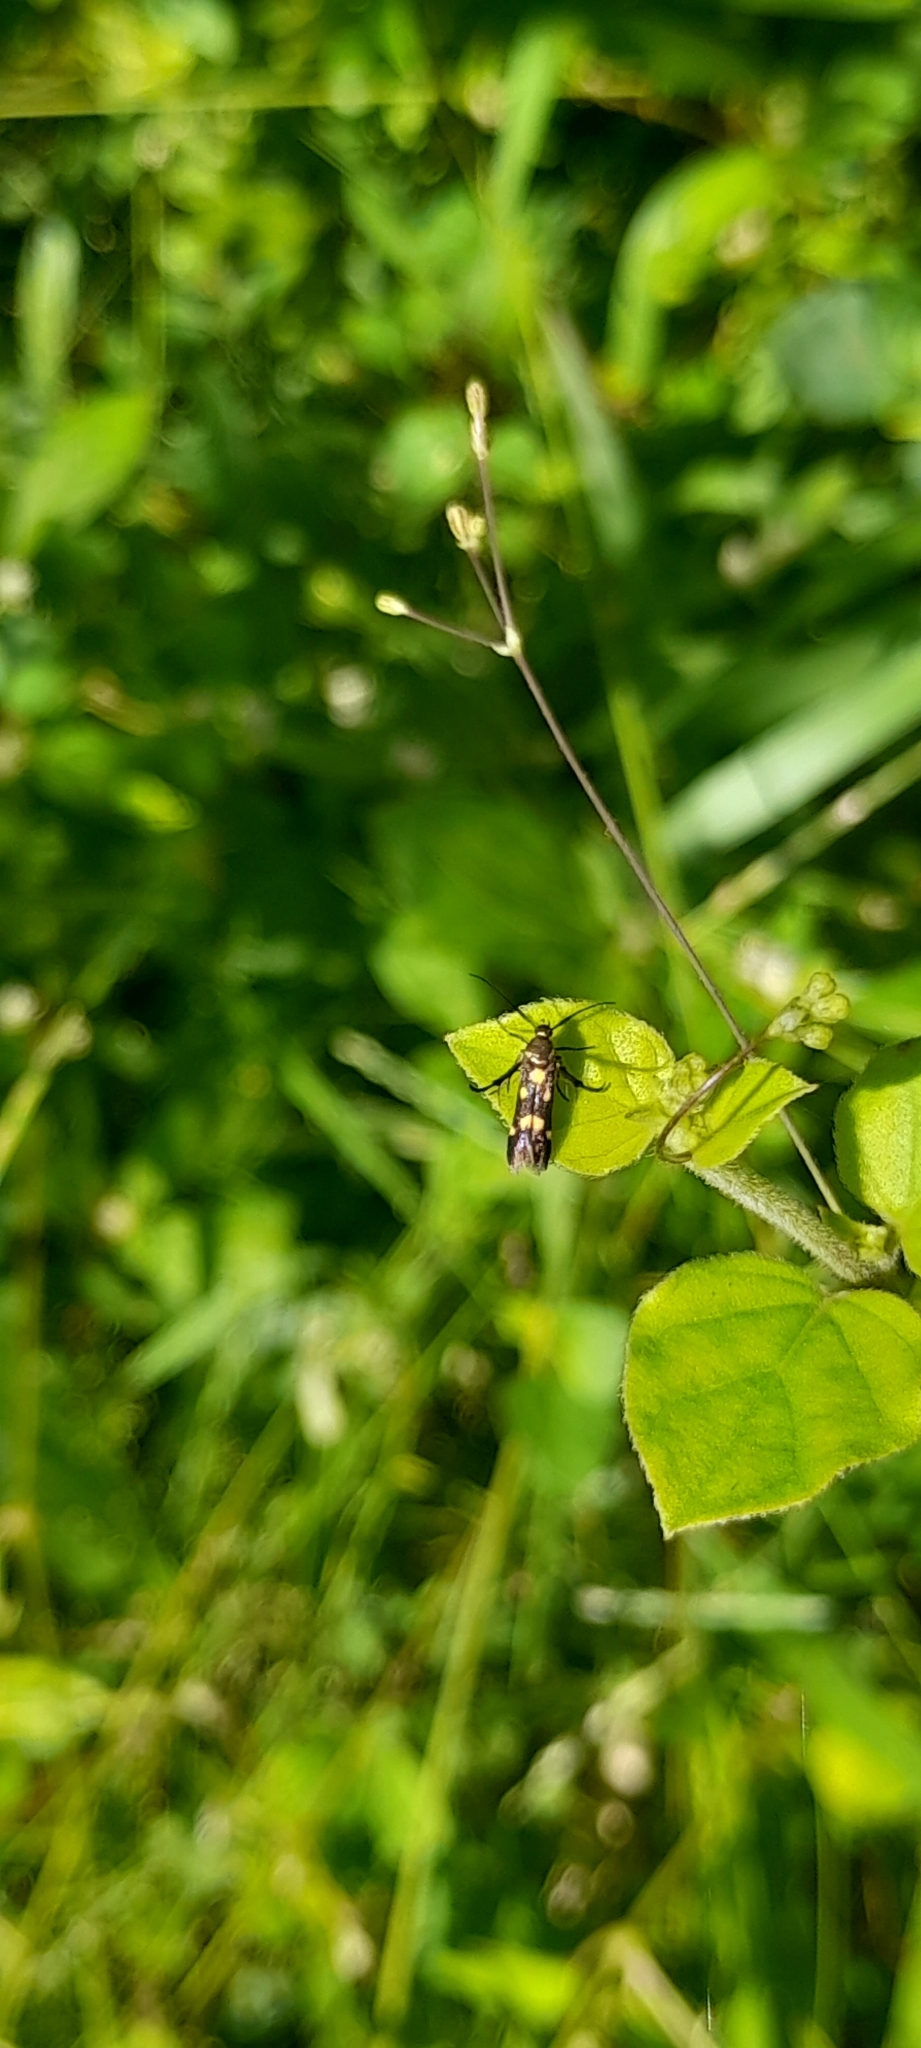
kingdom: Animalia
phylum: Arthropoda
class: Insecta
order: Lepidoptera
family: Scythrididae
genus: Eretmocera
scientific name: Eretmocera impactella
